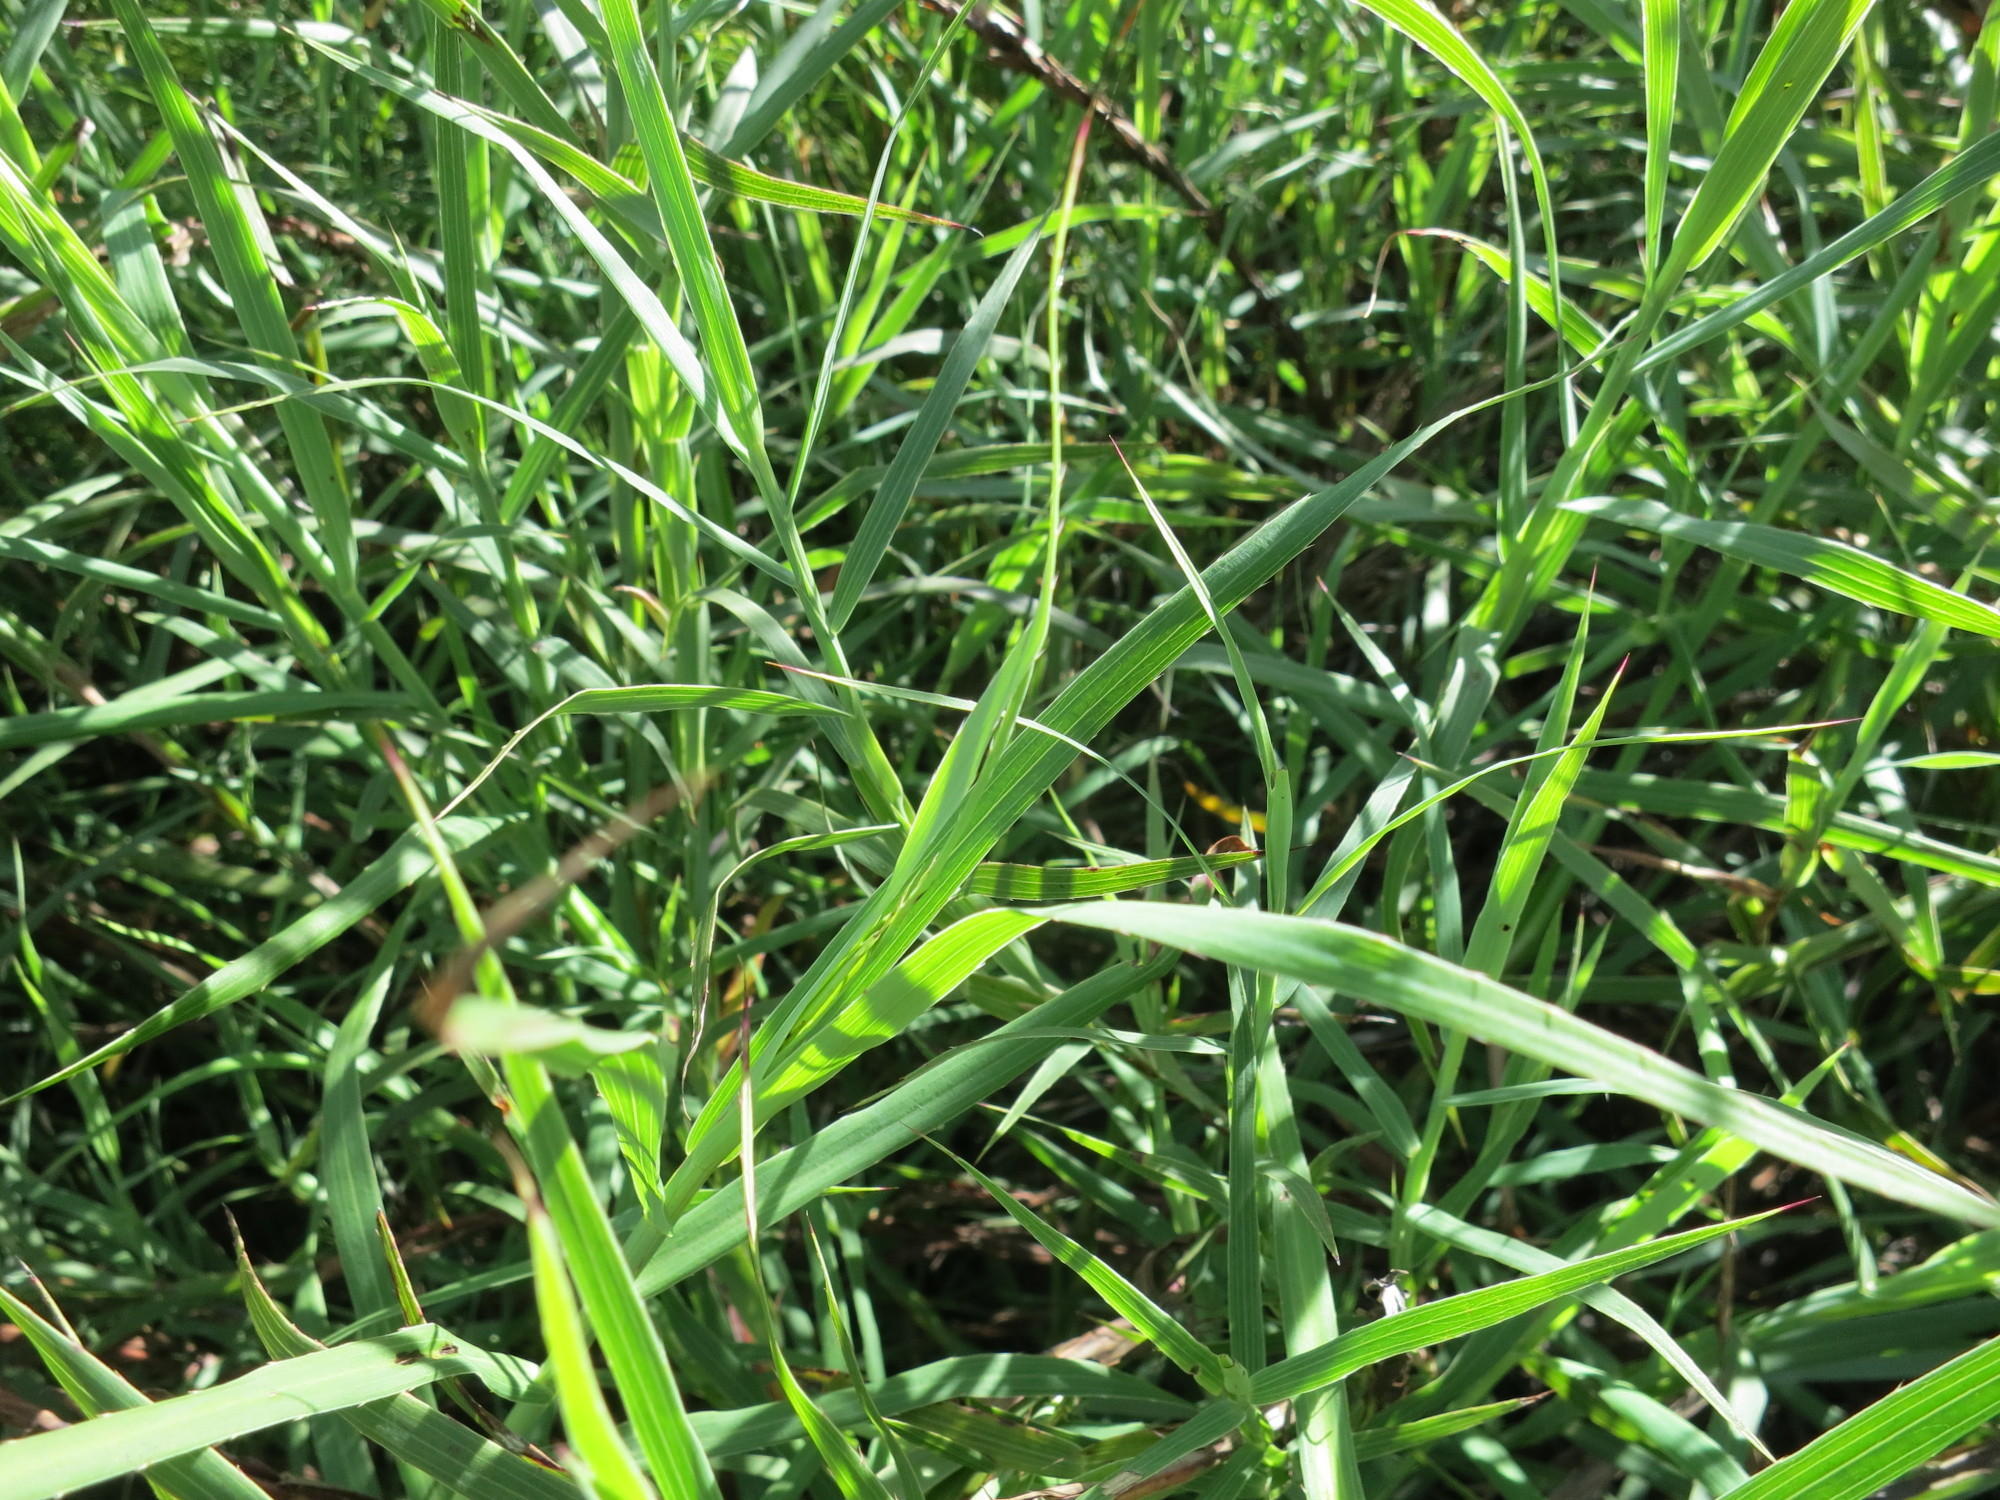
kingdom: Plantae
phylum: Tracheophyta
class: Magnoliopsida
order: Rosales
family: Rosaceae
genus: Cliffortia
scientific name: Cliffortia graminea
